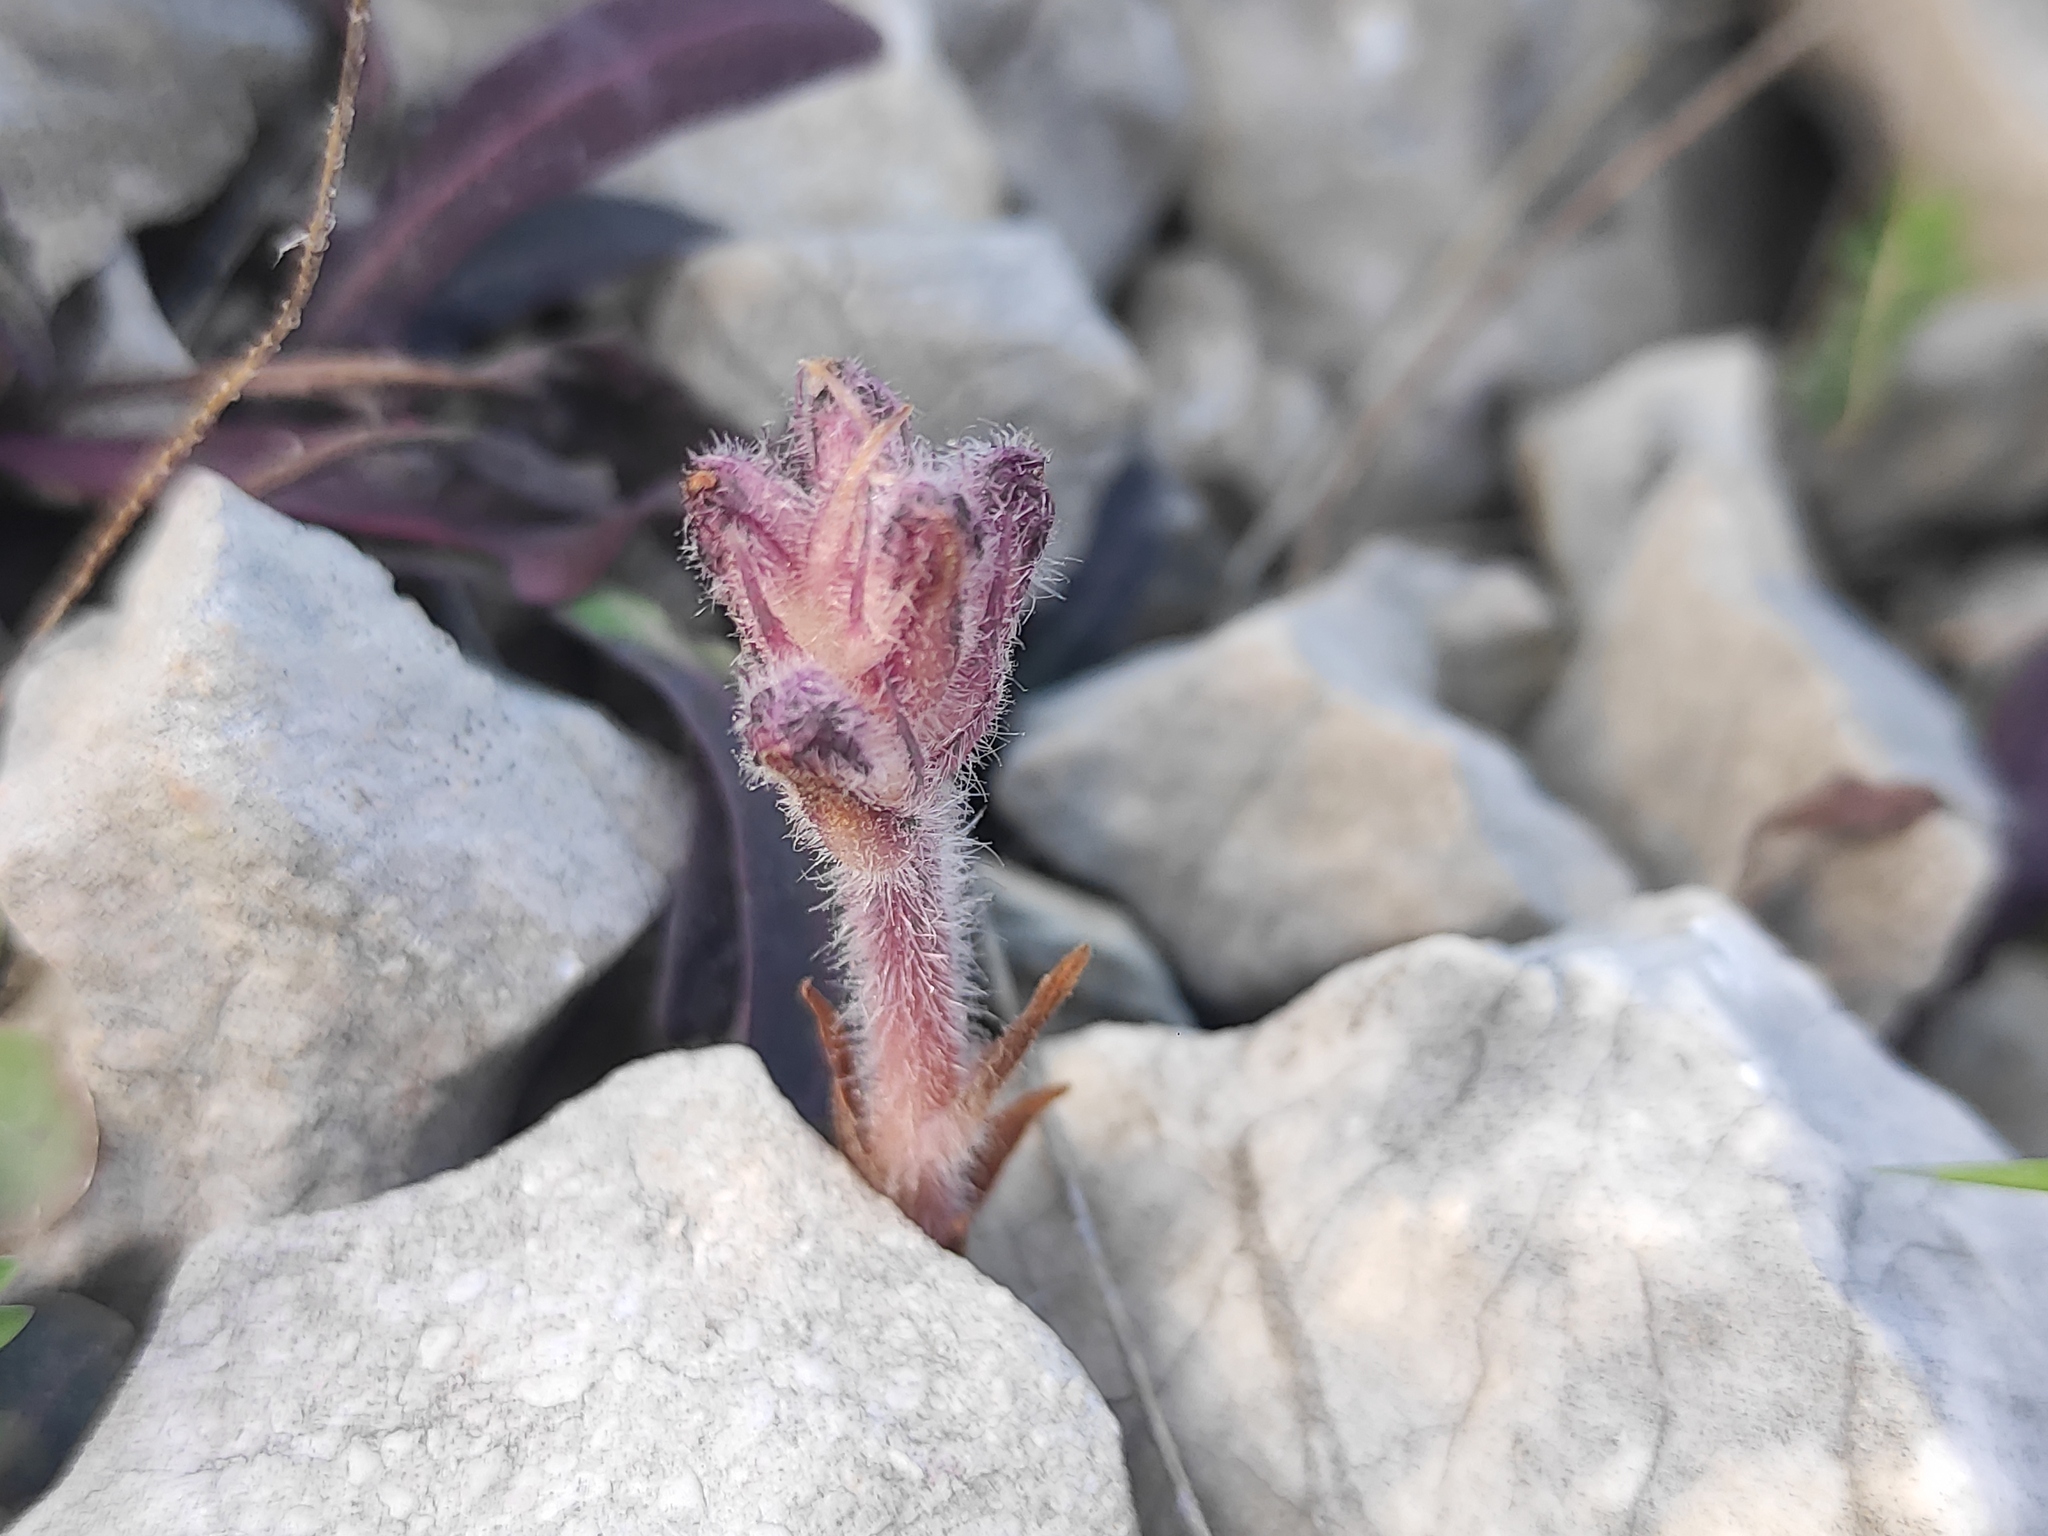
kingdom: Plantae
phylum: Tracheophyta
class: Magnoliopsida
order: Lamiales
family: Orobanchaceae
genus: Orobanche
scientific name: Orobanche pubescens
